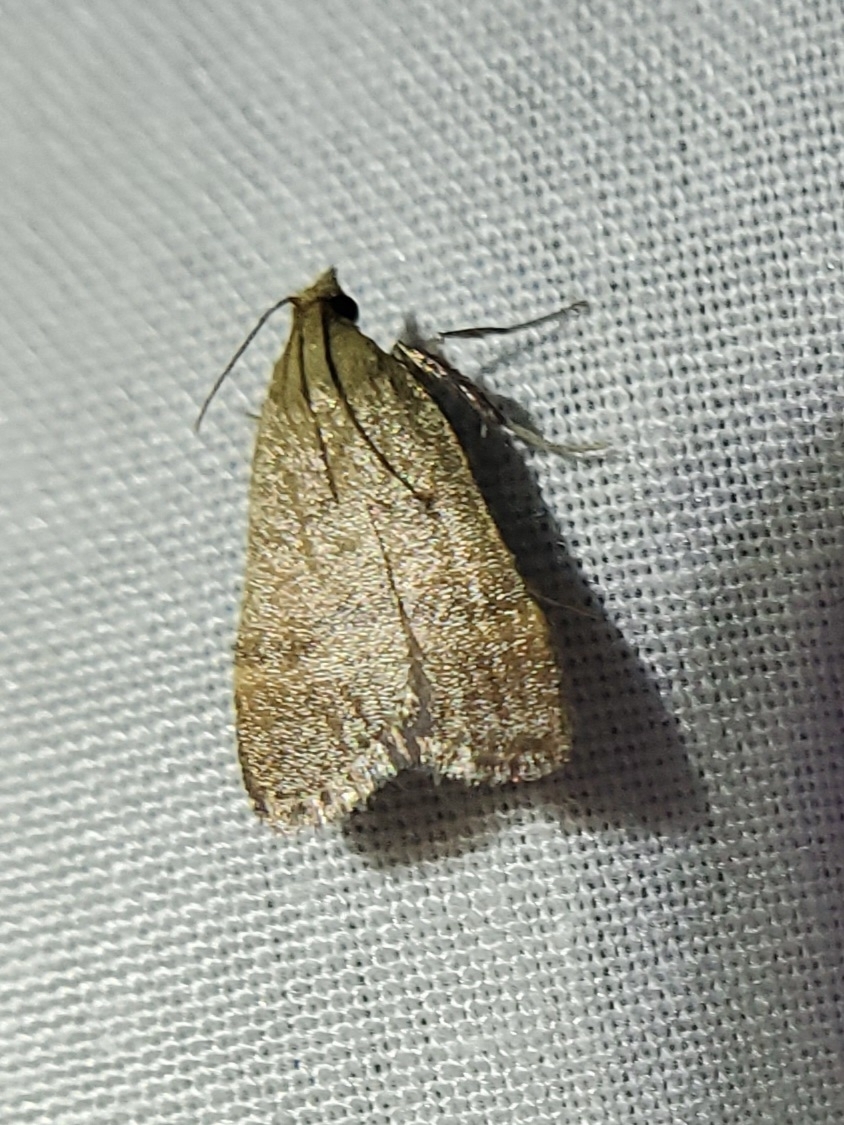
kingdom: Animalia
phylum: Arthropoda
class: Insecta
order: Lepidoptera
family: Pyralidae
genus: Condylolomia
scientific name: Condylolomia participialis
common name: Drab condylolomia moth
